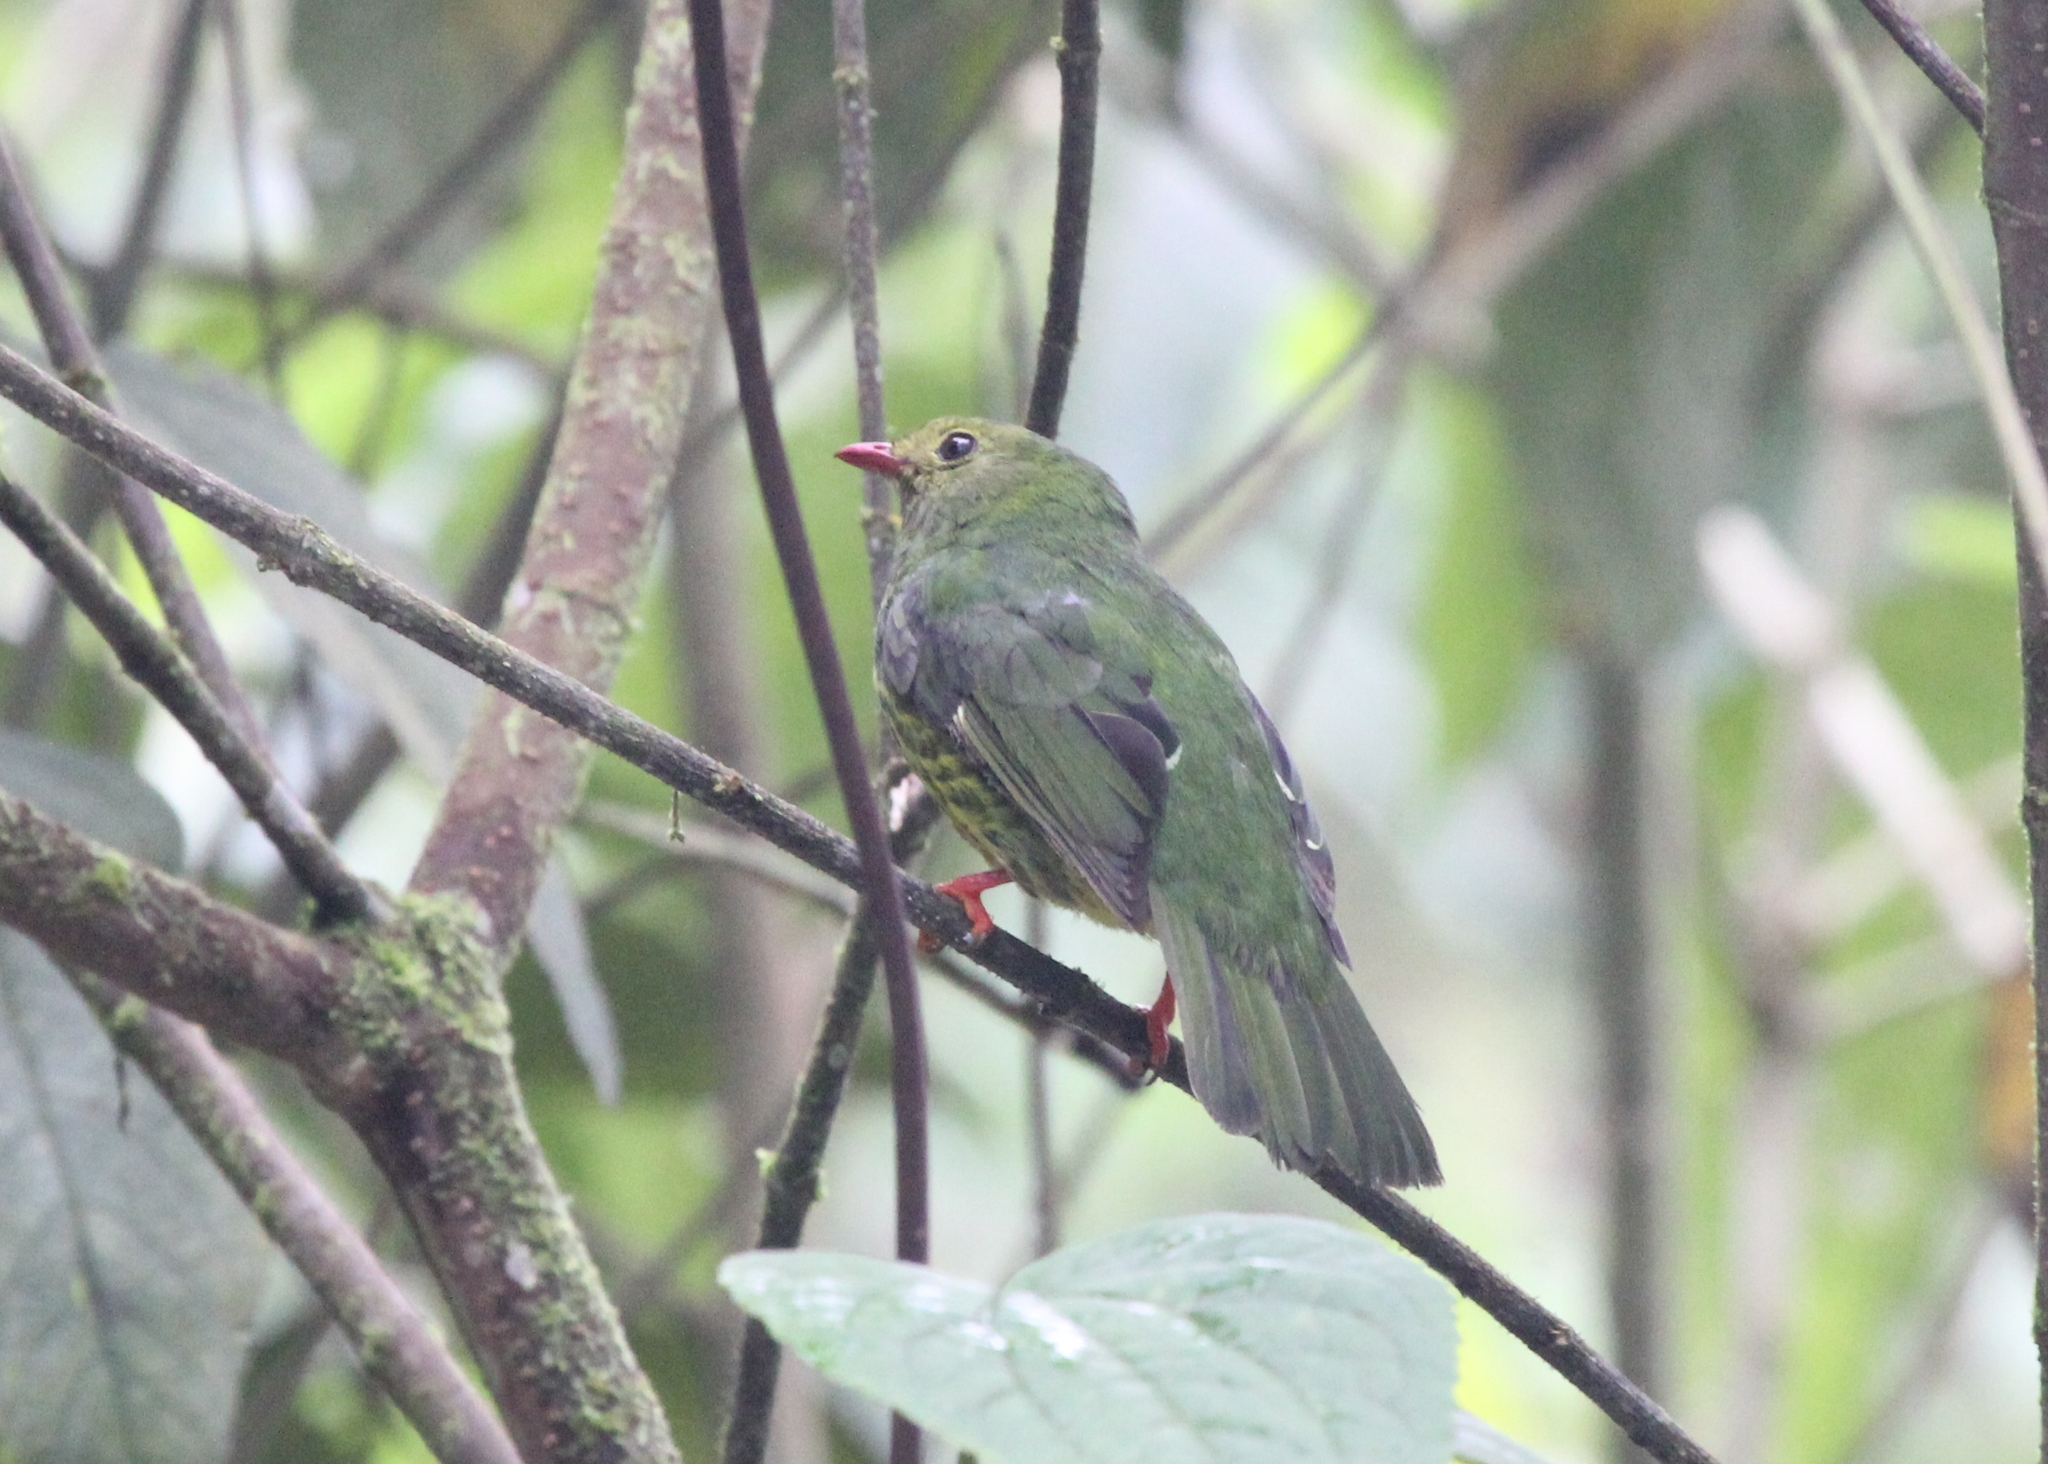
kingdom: Animalia
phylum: Chordata
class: Aves
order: Passeriformes
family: Cotingidae
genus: Pipreola
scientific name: Pipreola riefferii
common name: Green-and-black fruiteater
